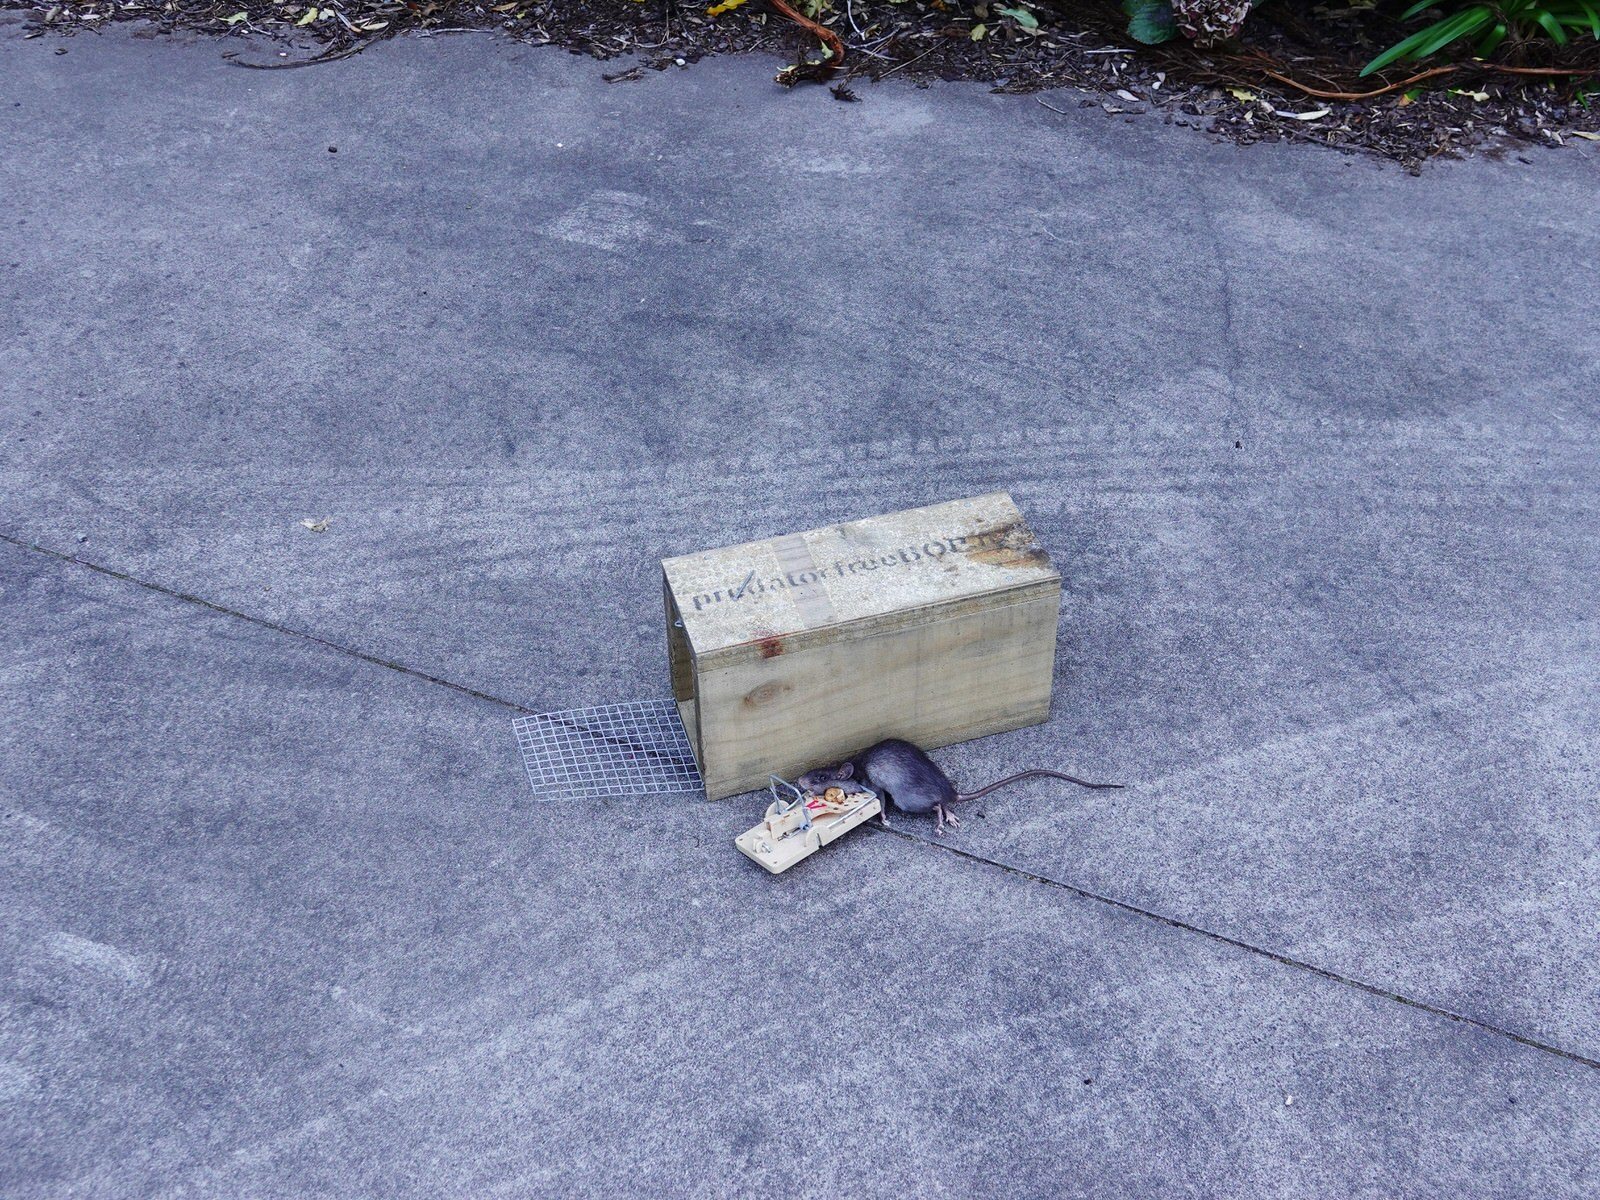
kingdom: Animalia
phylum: Chordata
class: Mammalia
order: Rodentia
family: Muridae
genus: Rattus
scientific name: Rattus rattus
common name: Black rat
